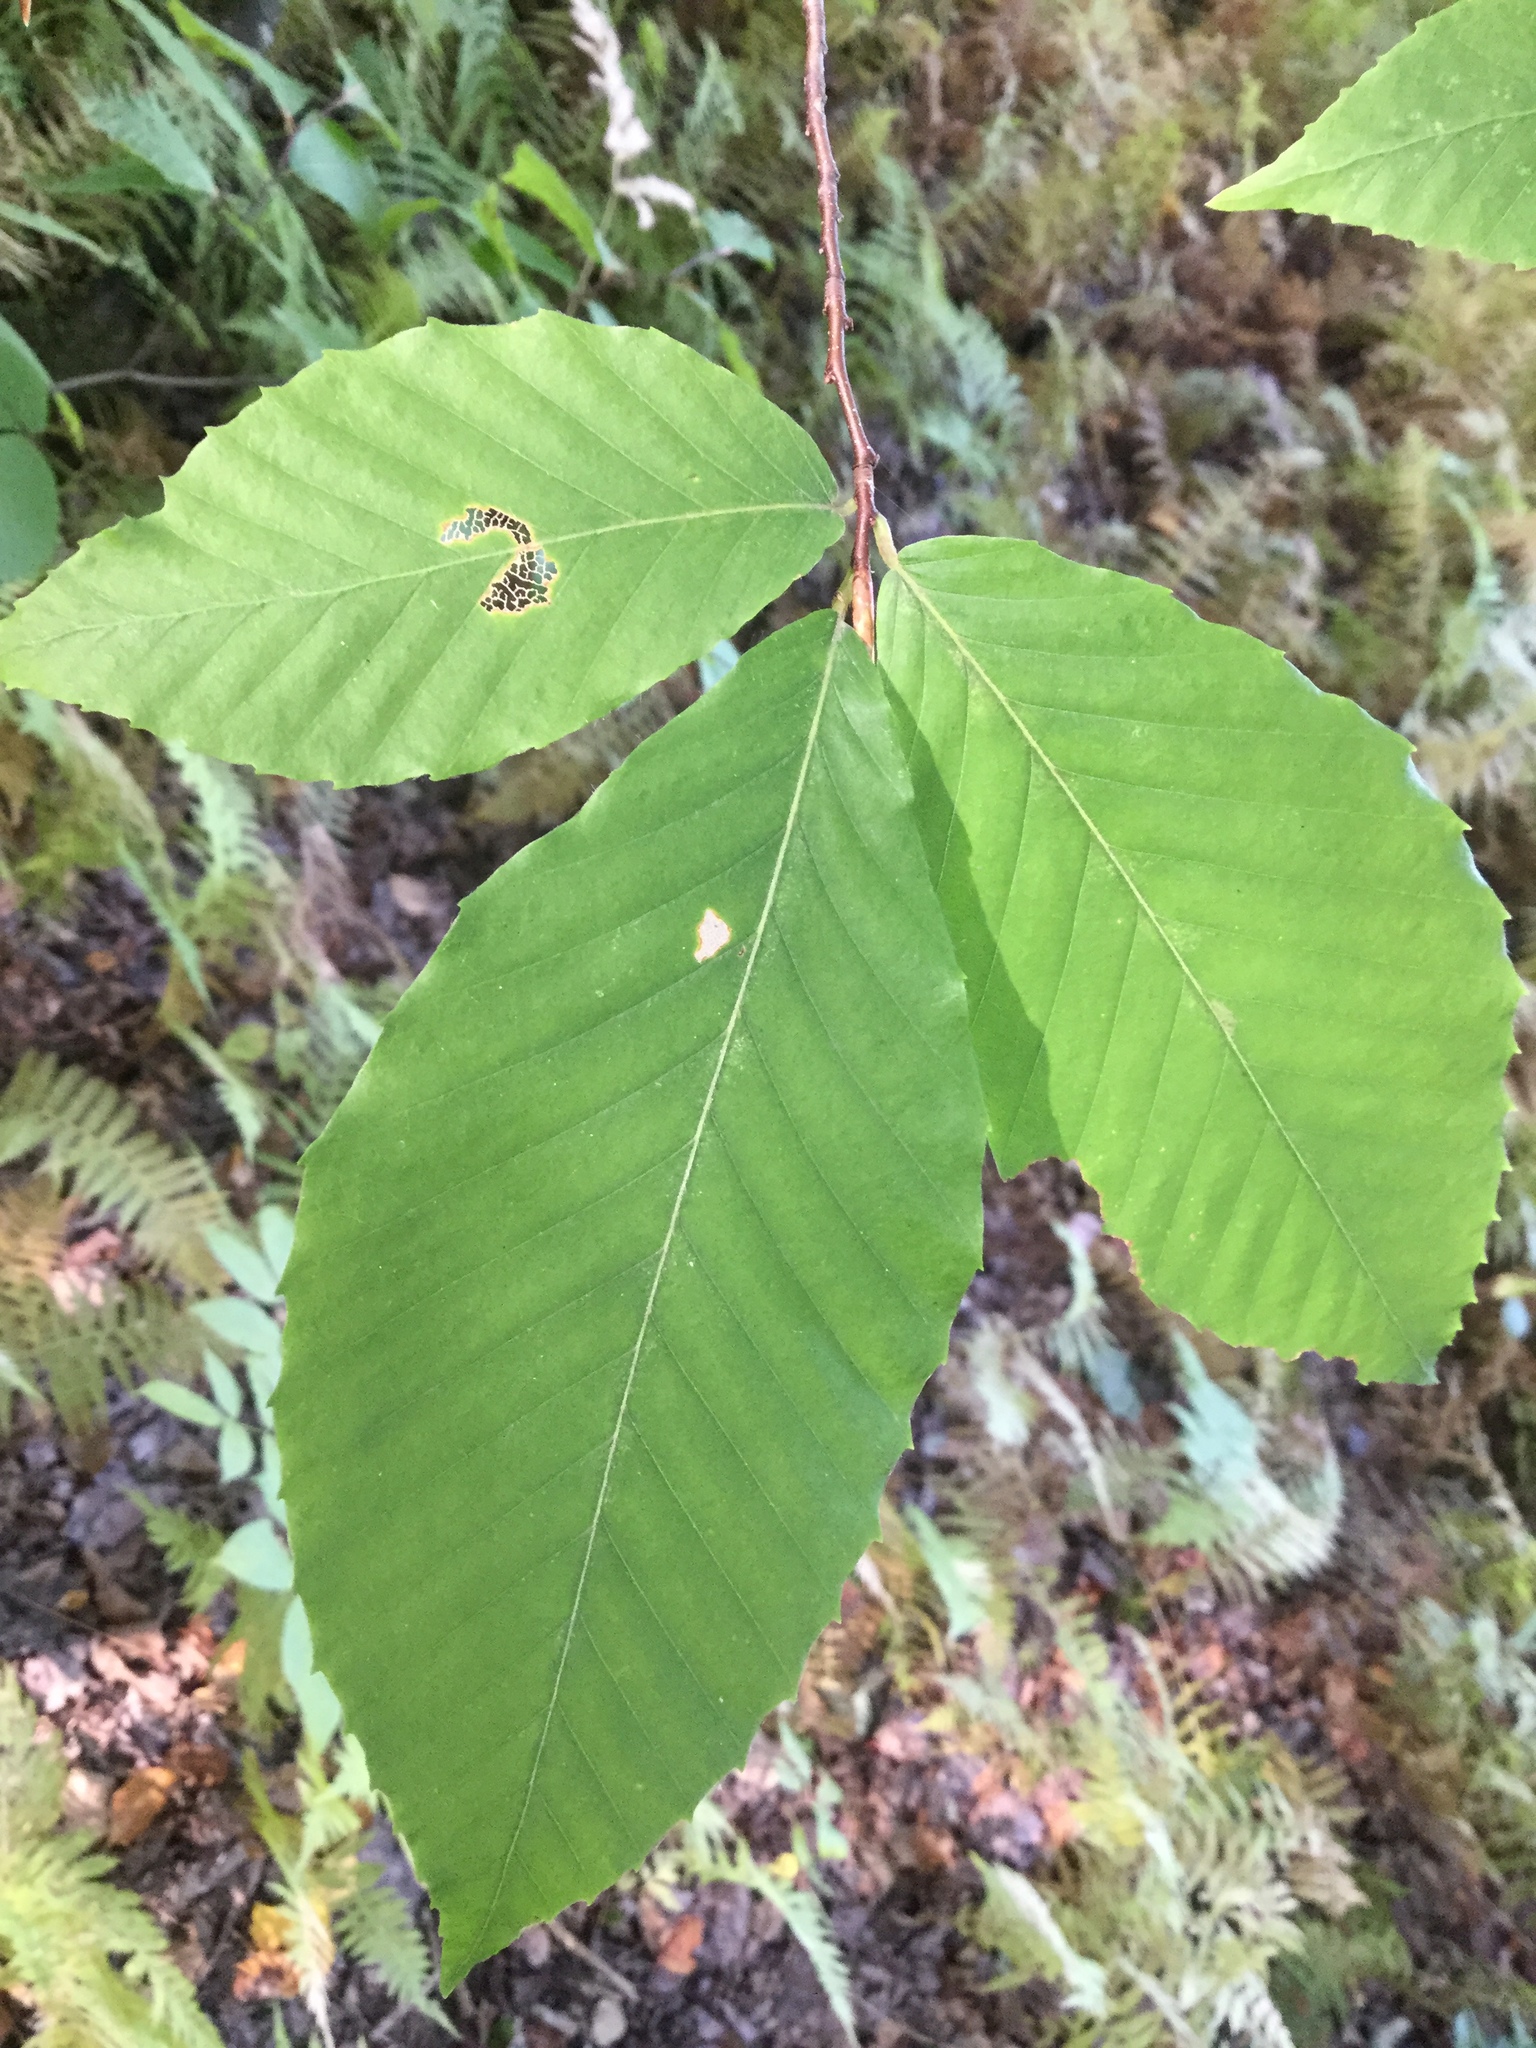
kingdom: Plantae
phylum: Tracheophyta
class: Magnoliopsida
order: Fagales
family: Fagaceae
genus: Fagus
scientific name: Fagus grandifolia
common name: American beech
